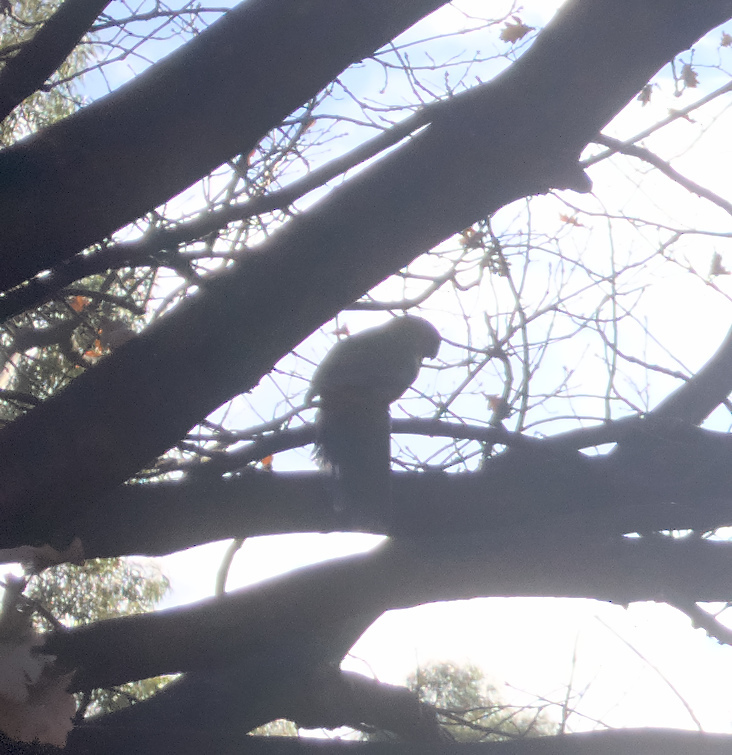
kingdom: Animalia
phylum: Chordata
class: Aves
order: Psittaciformes
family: Psittacidae
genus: Platycercus
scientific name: Platycercus elegans
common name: Crimson rosella
